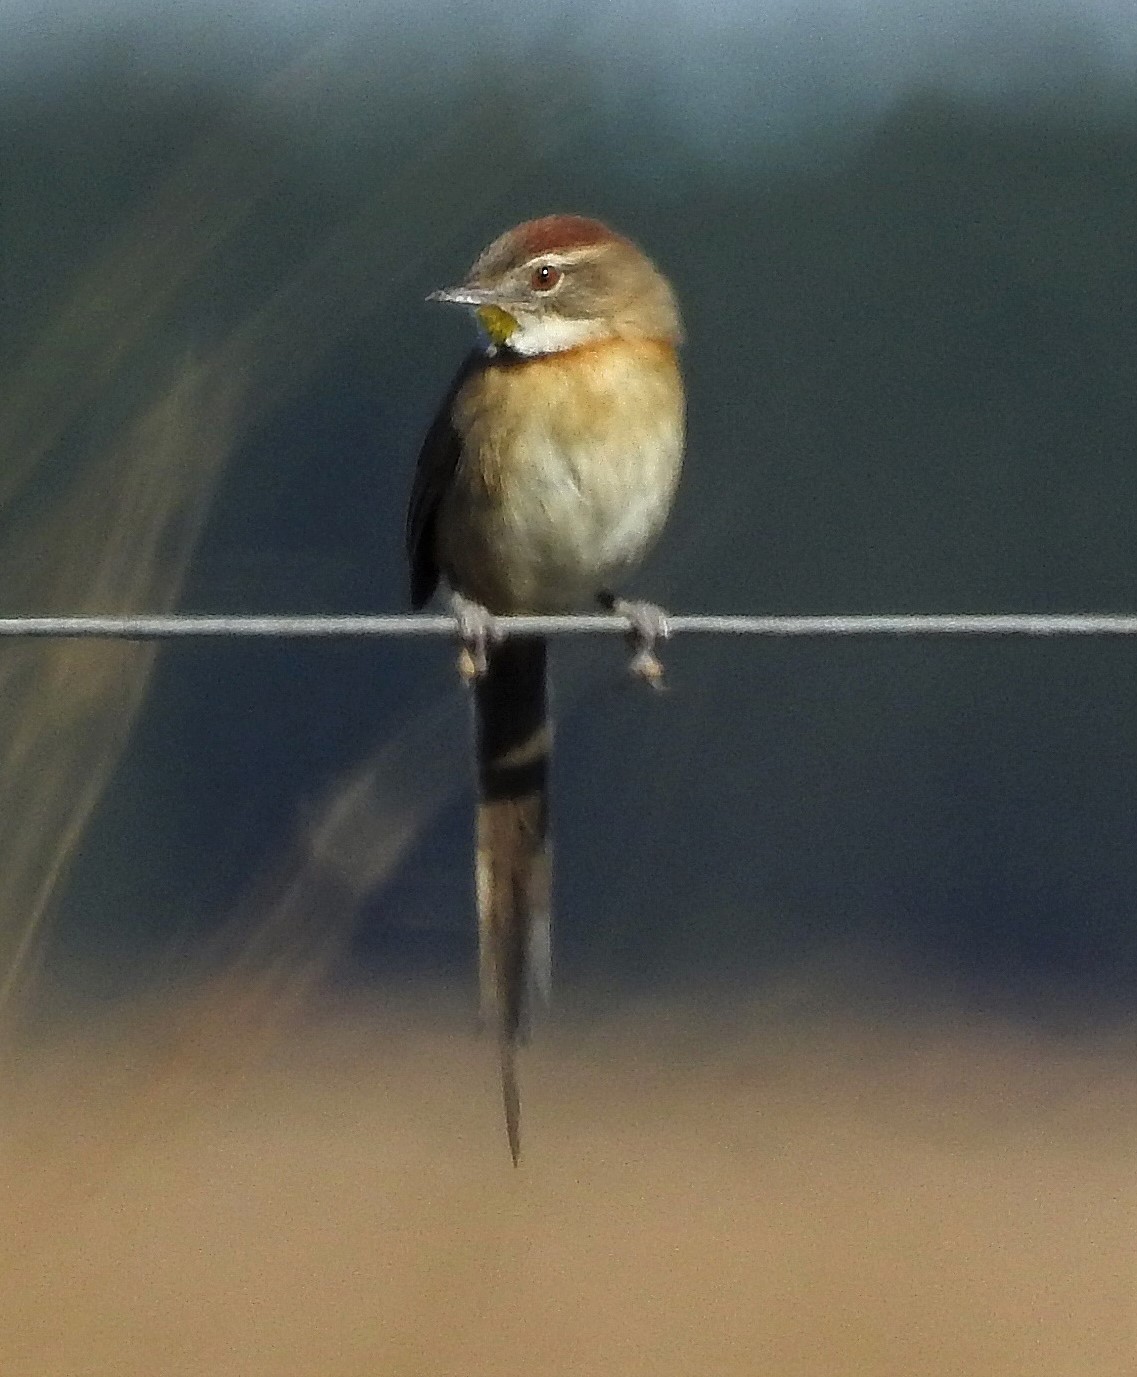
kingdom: Animalia
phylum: Chordata
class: Aves
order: Passeriformes
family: Furnariidae
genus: Schoeniophylax
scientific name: Schoeniophylax phryganophilus
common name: Chotoy spinetail
